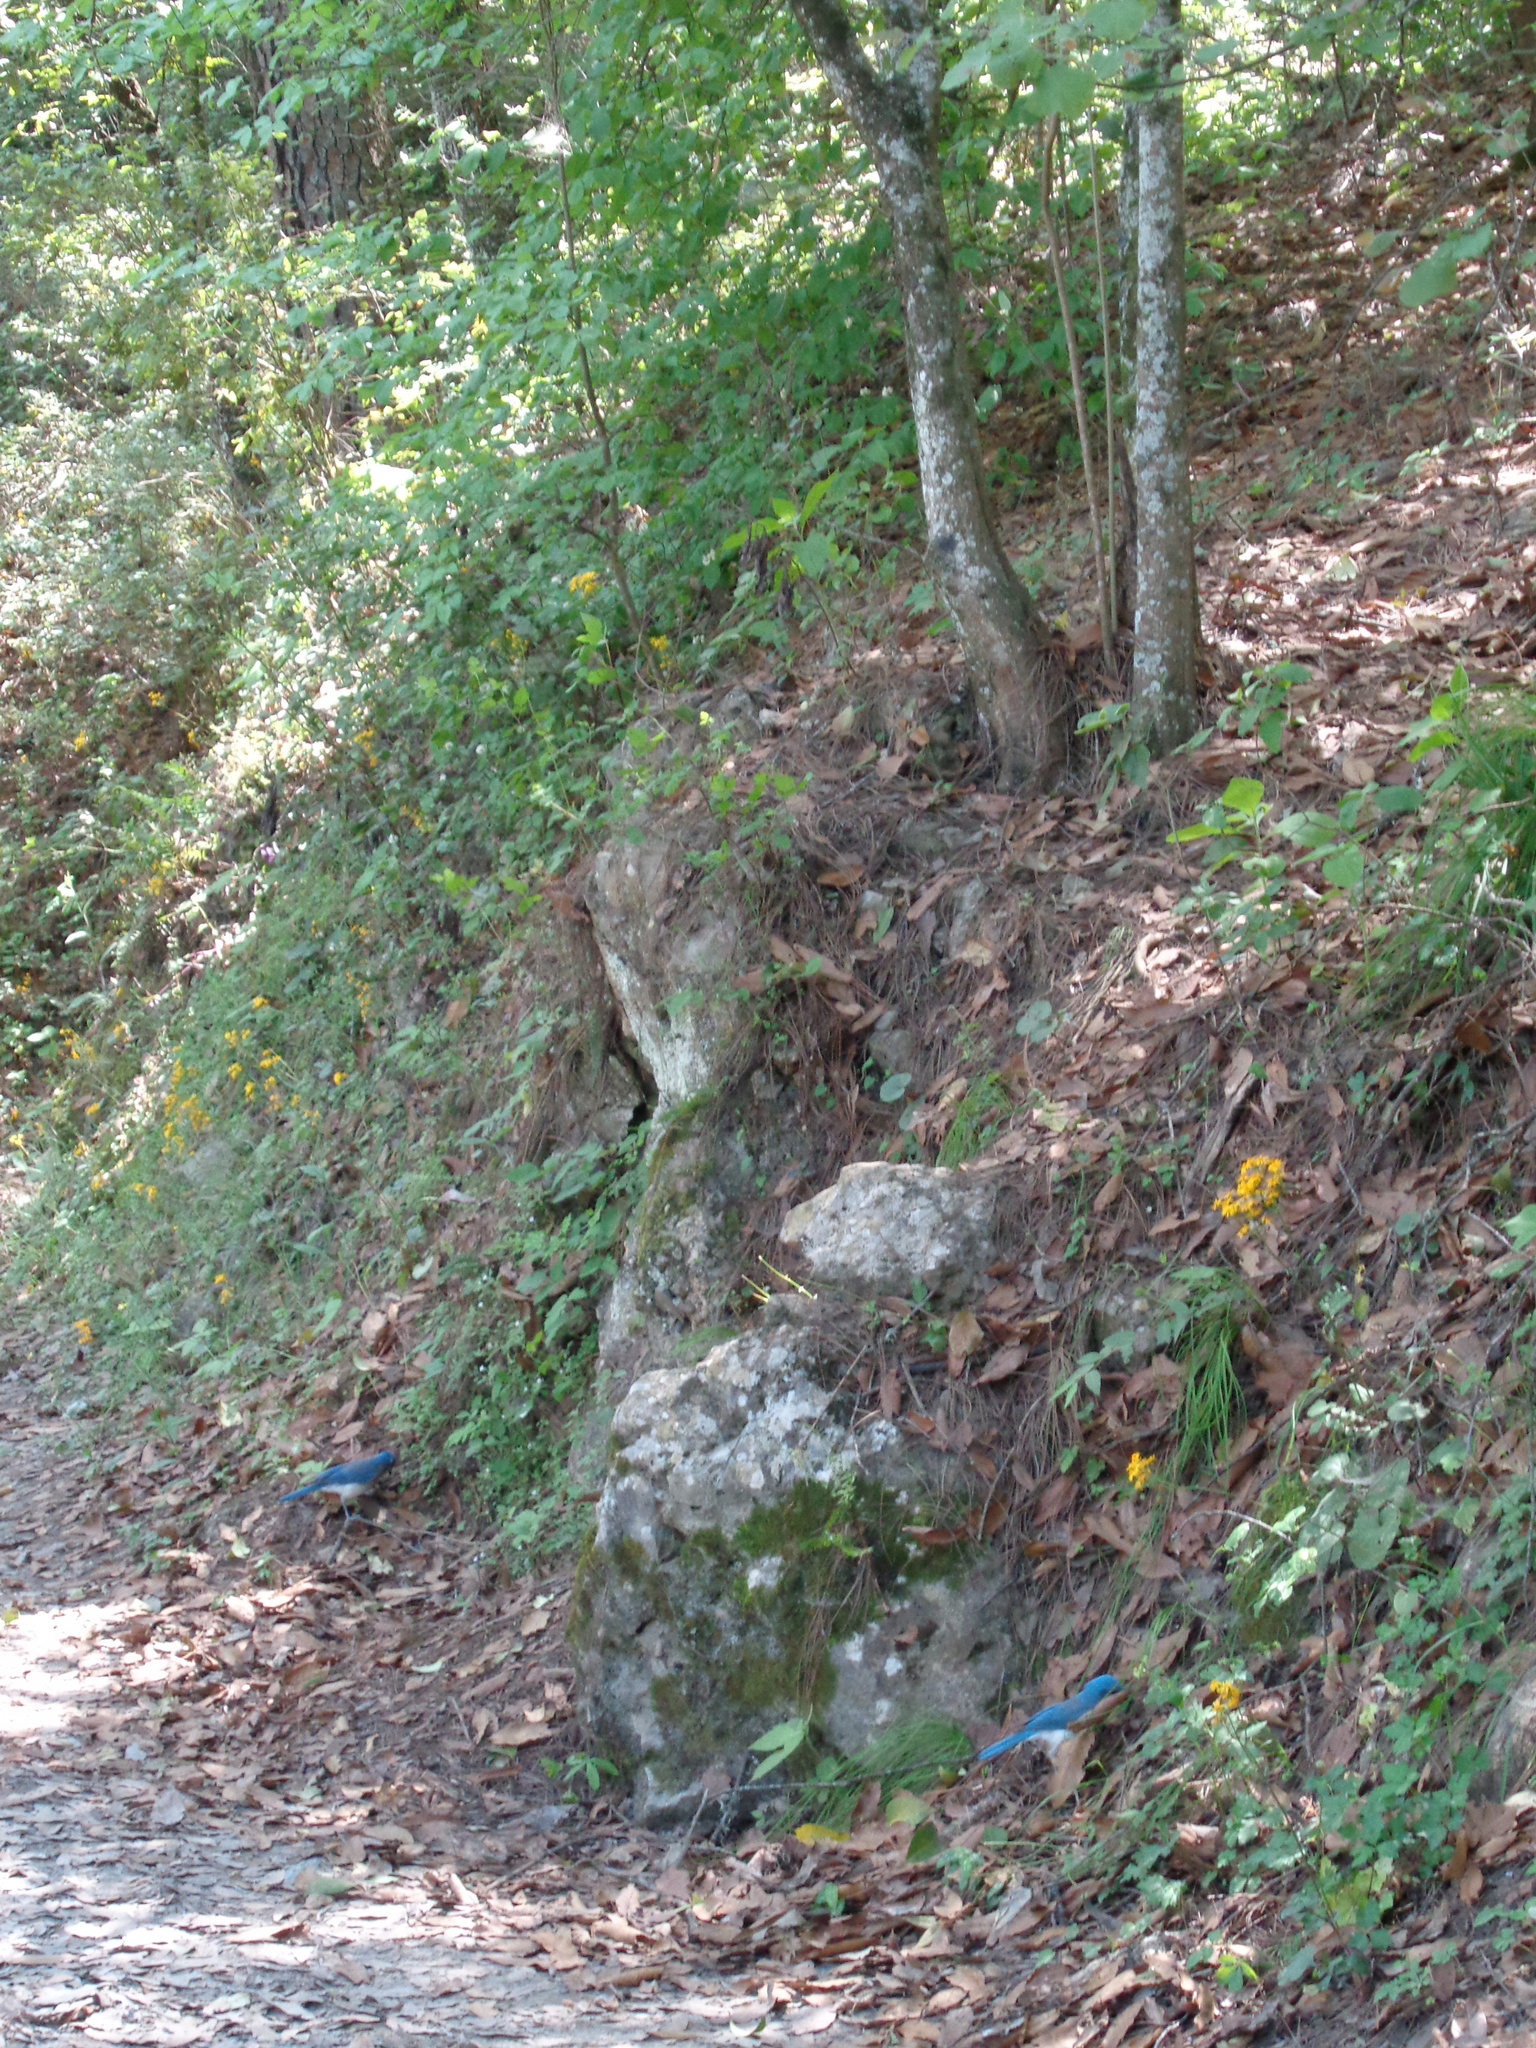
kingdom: Animalia
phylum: Chordata
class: Aves
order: Passeriformes
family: Corvidae
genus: Aphelocoma
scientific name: Aphelocoma wollweberi
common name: Mexican jay
